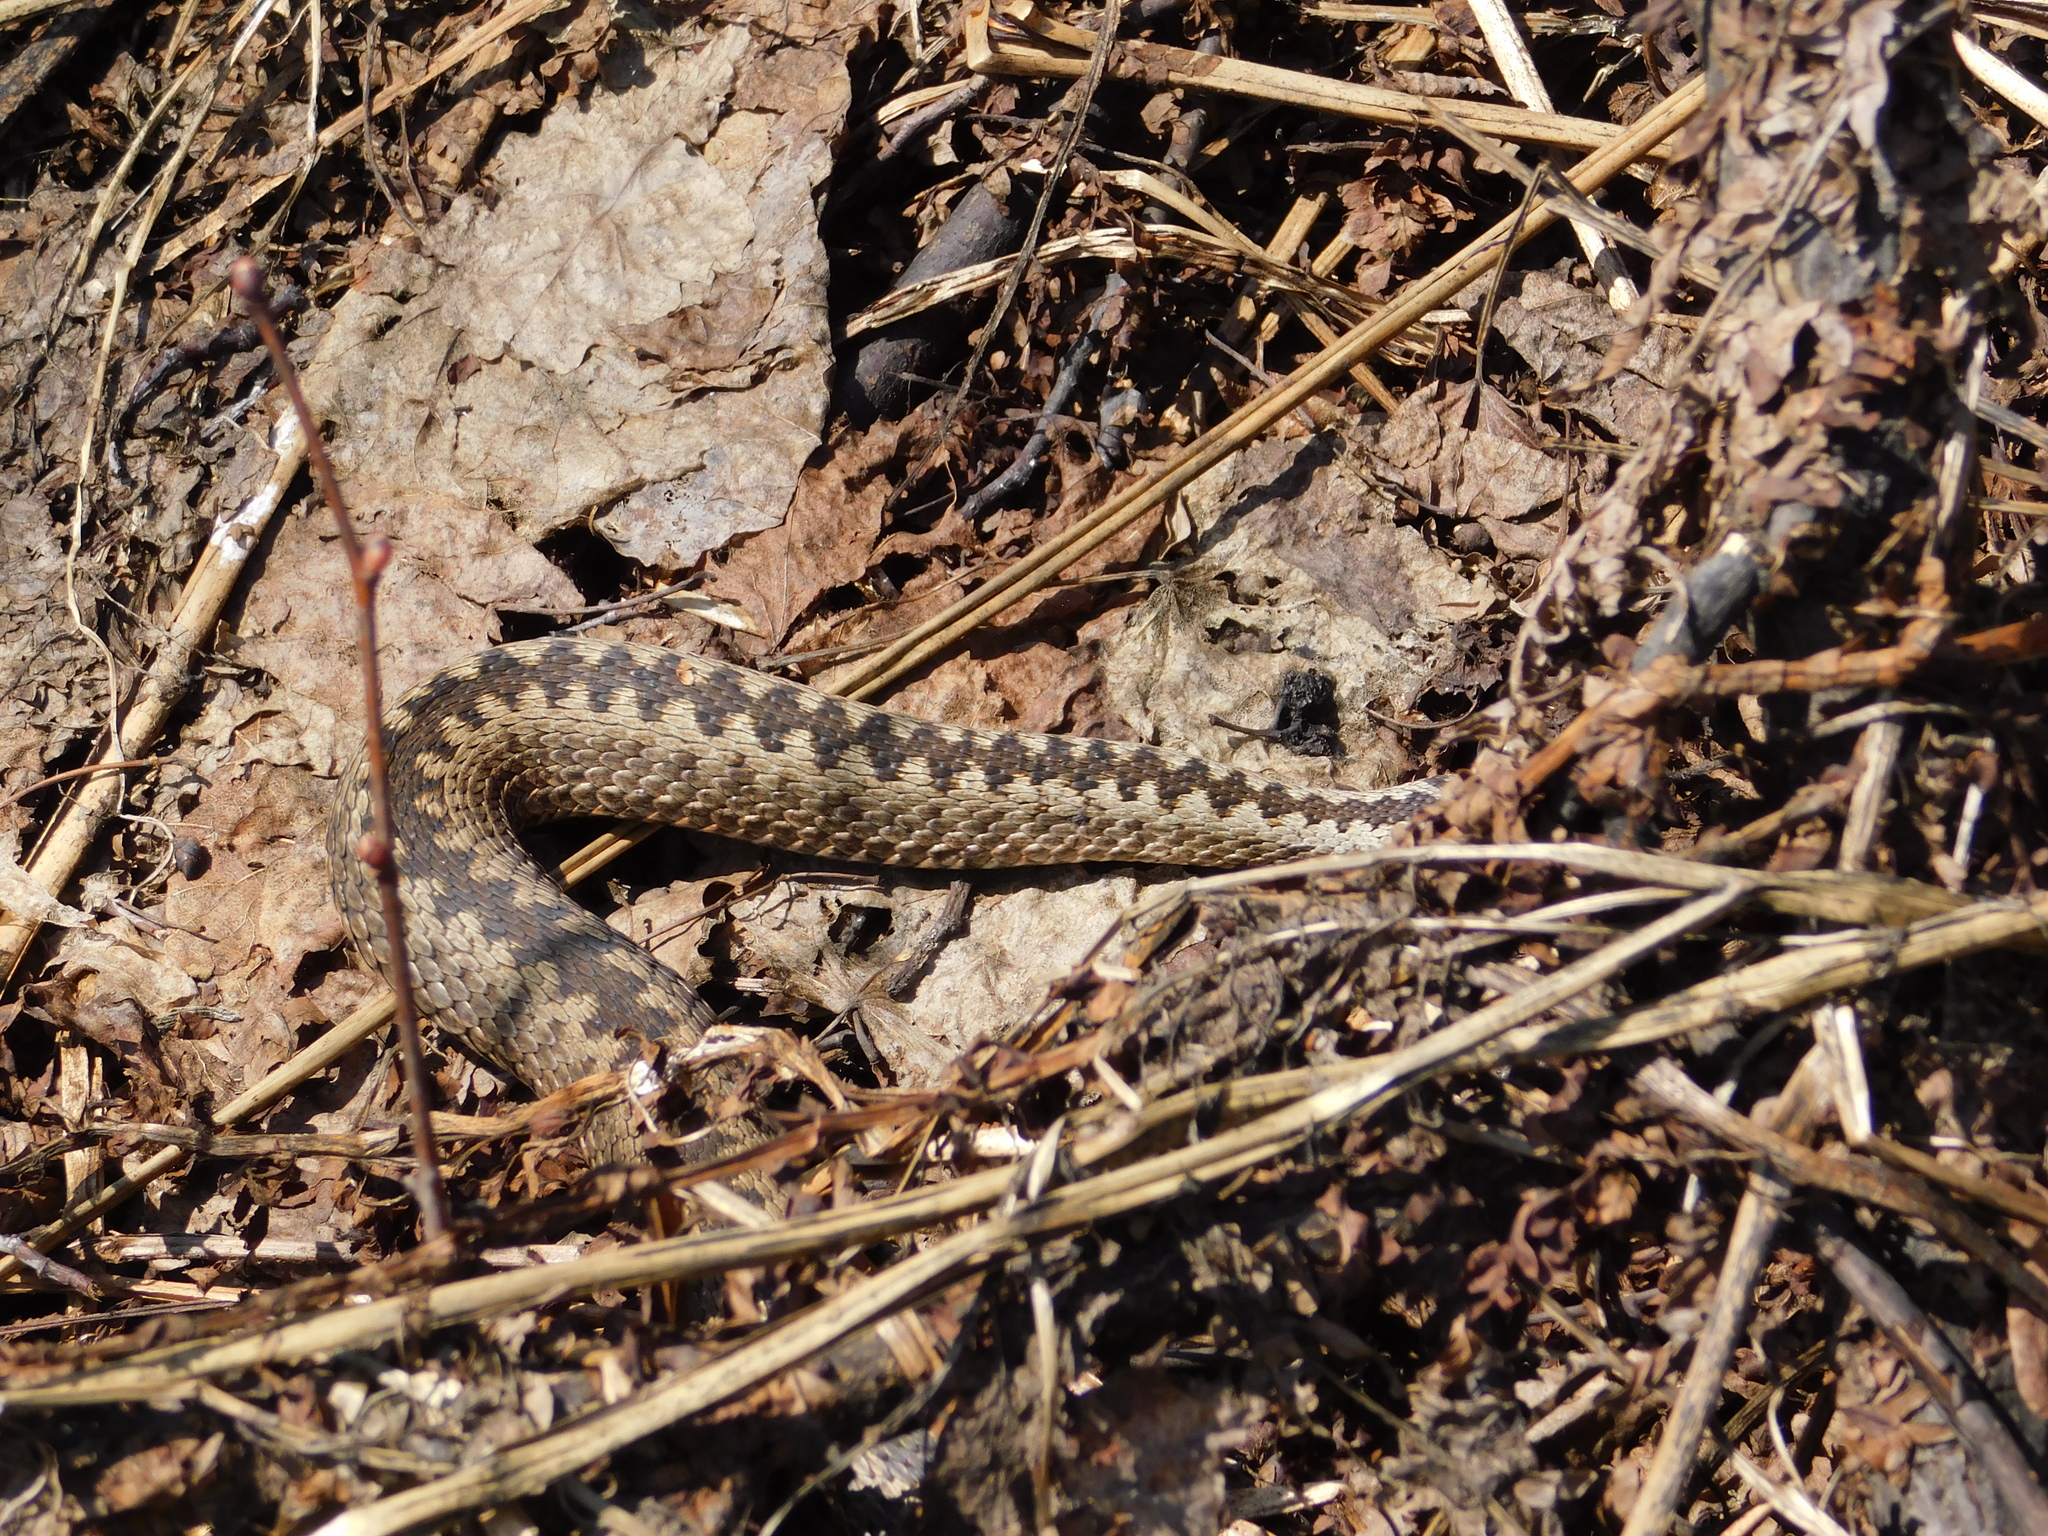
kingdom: Animalia
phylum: Chordata
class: Squamata
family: Viperidae
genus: Vipera
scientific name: Vipera berus
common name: Adder
